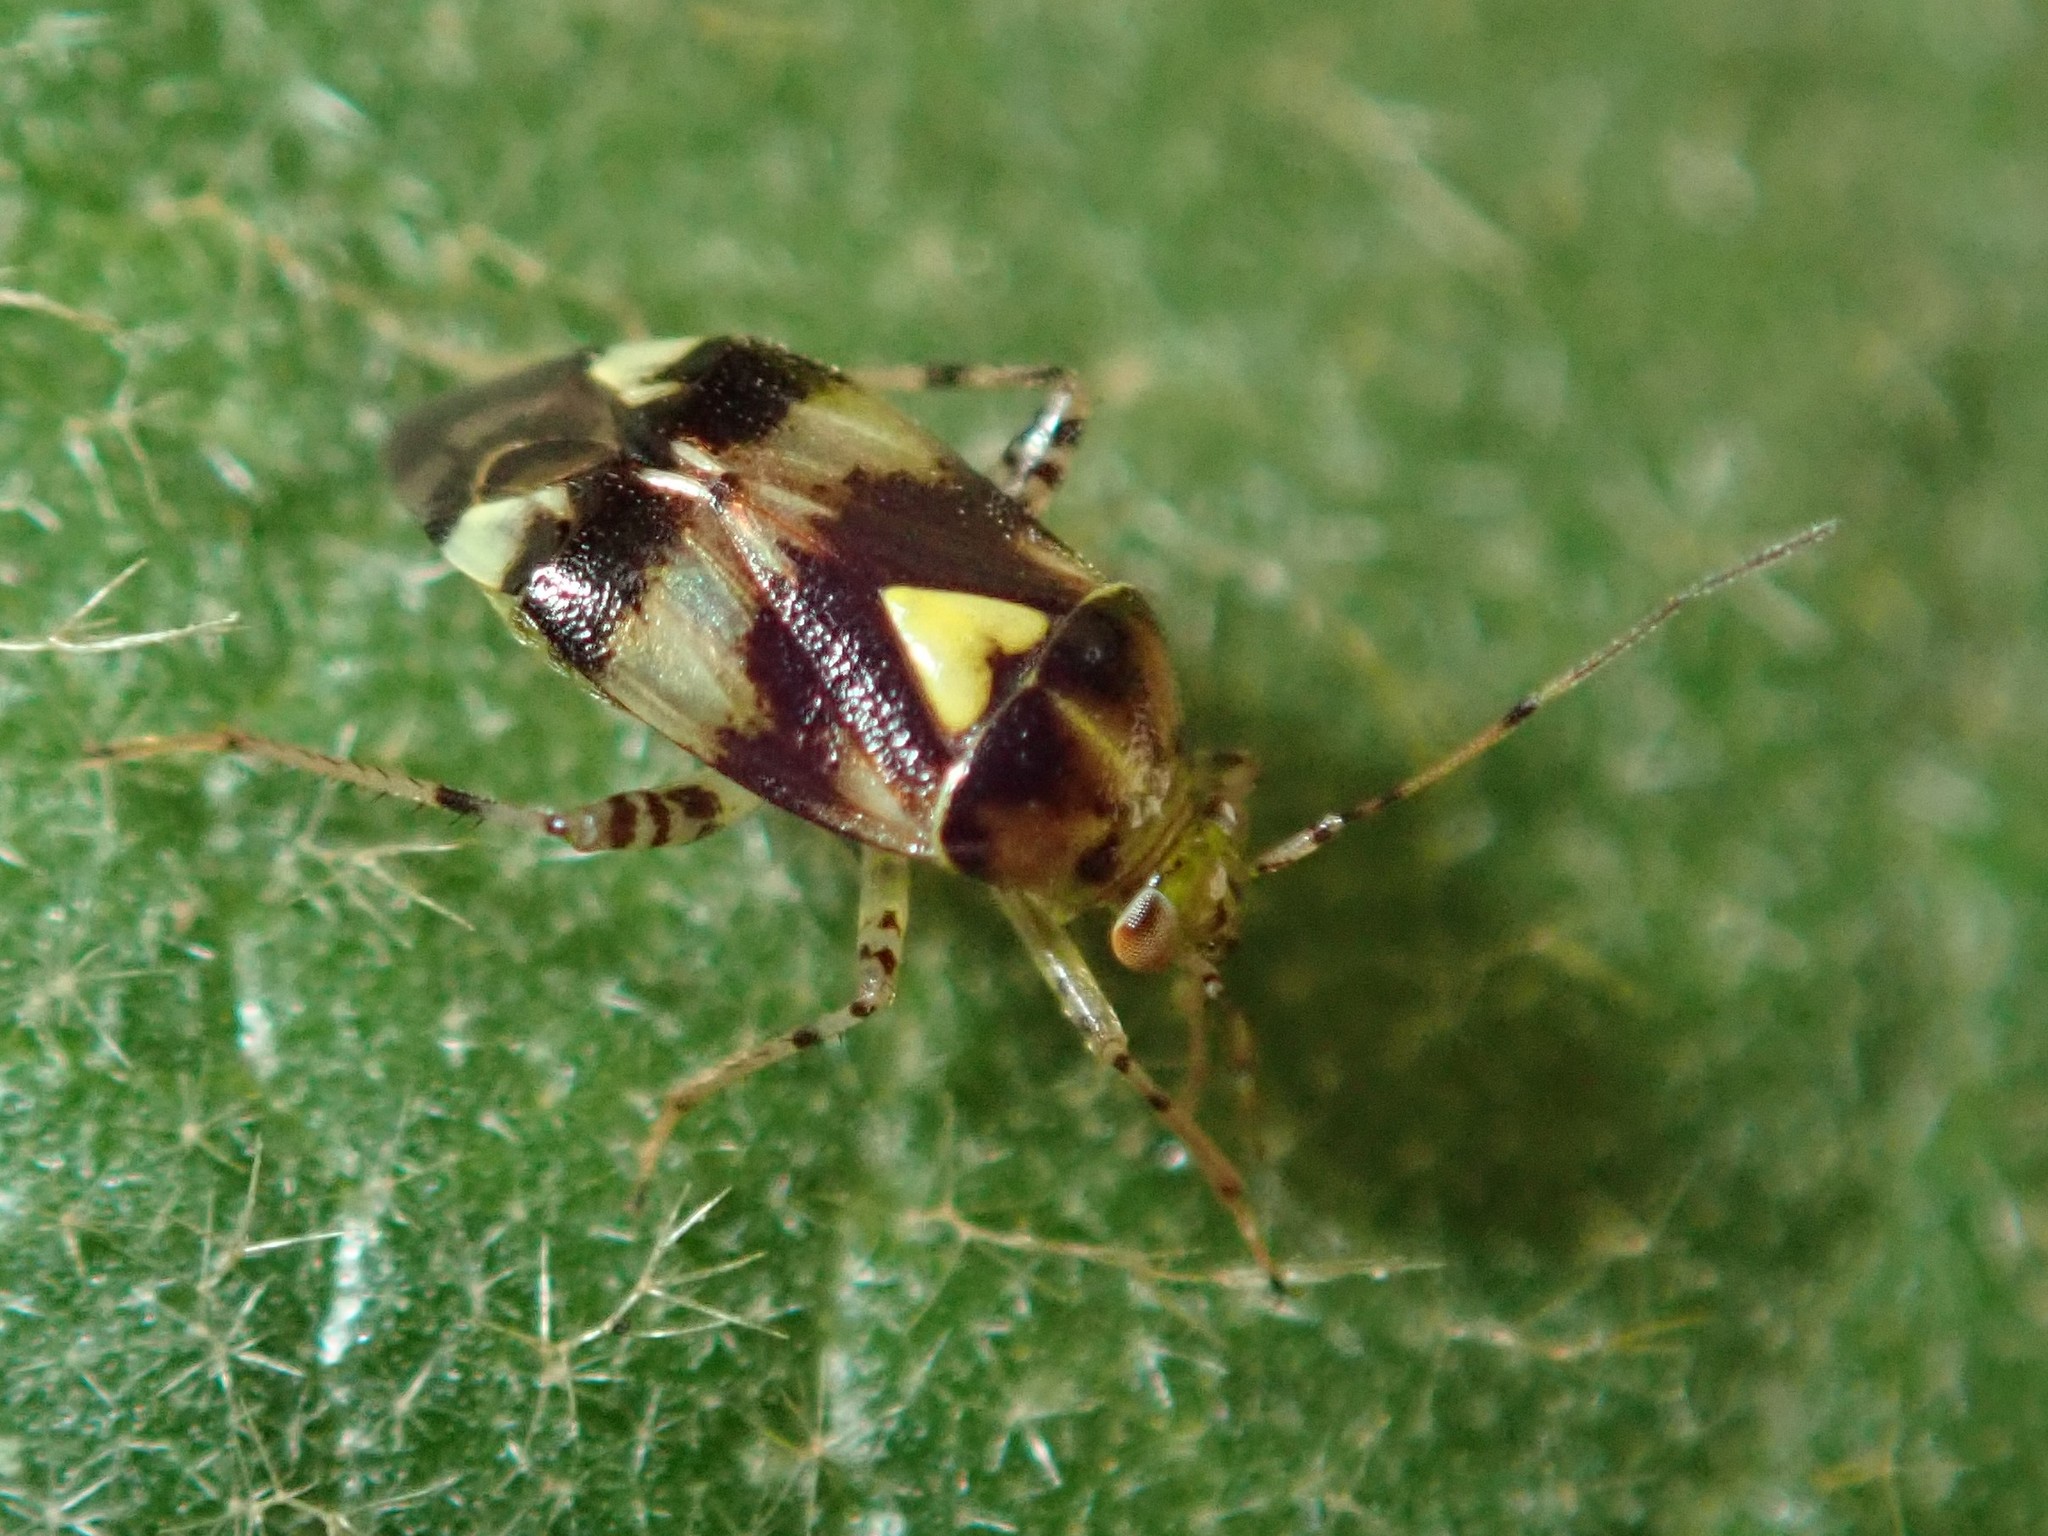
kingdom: Animalia
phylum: Arthropoda
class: Insecta
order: Hemiptera
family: Miridae
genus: Liocoris
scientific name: Liocoris tripustulatus
